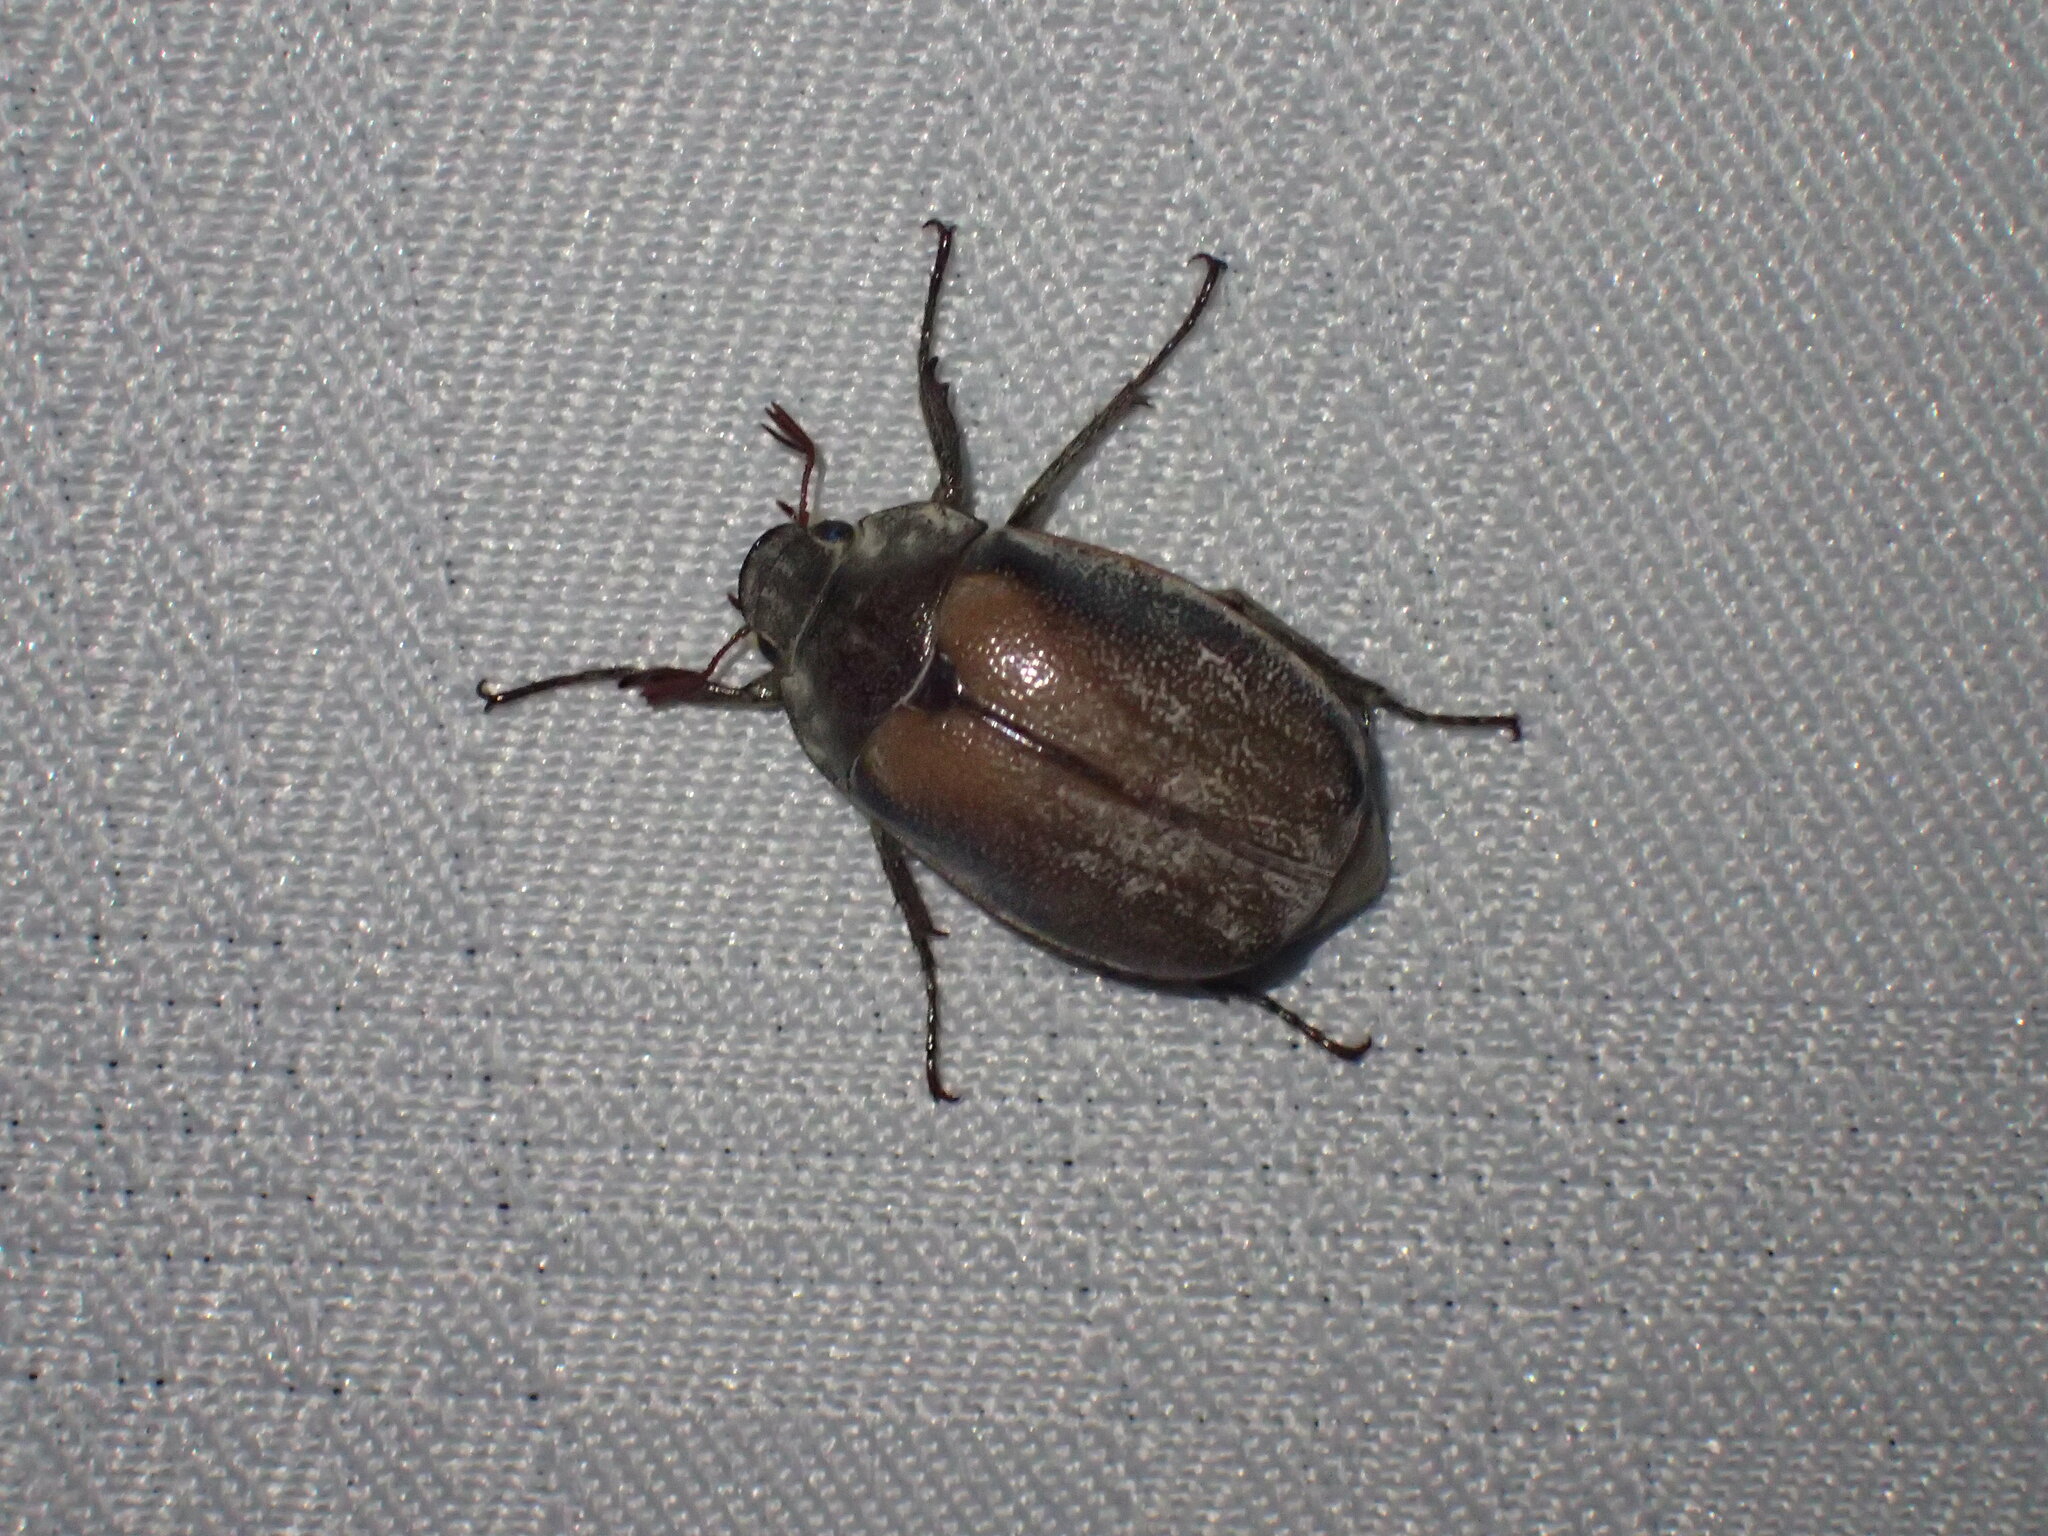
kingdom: Animalia
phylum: Arthropoda
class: Insecta
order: Coleoptera
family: Scarabaeidae
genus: Pegylis
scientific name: Pegylis sommeri
